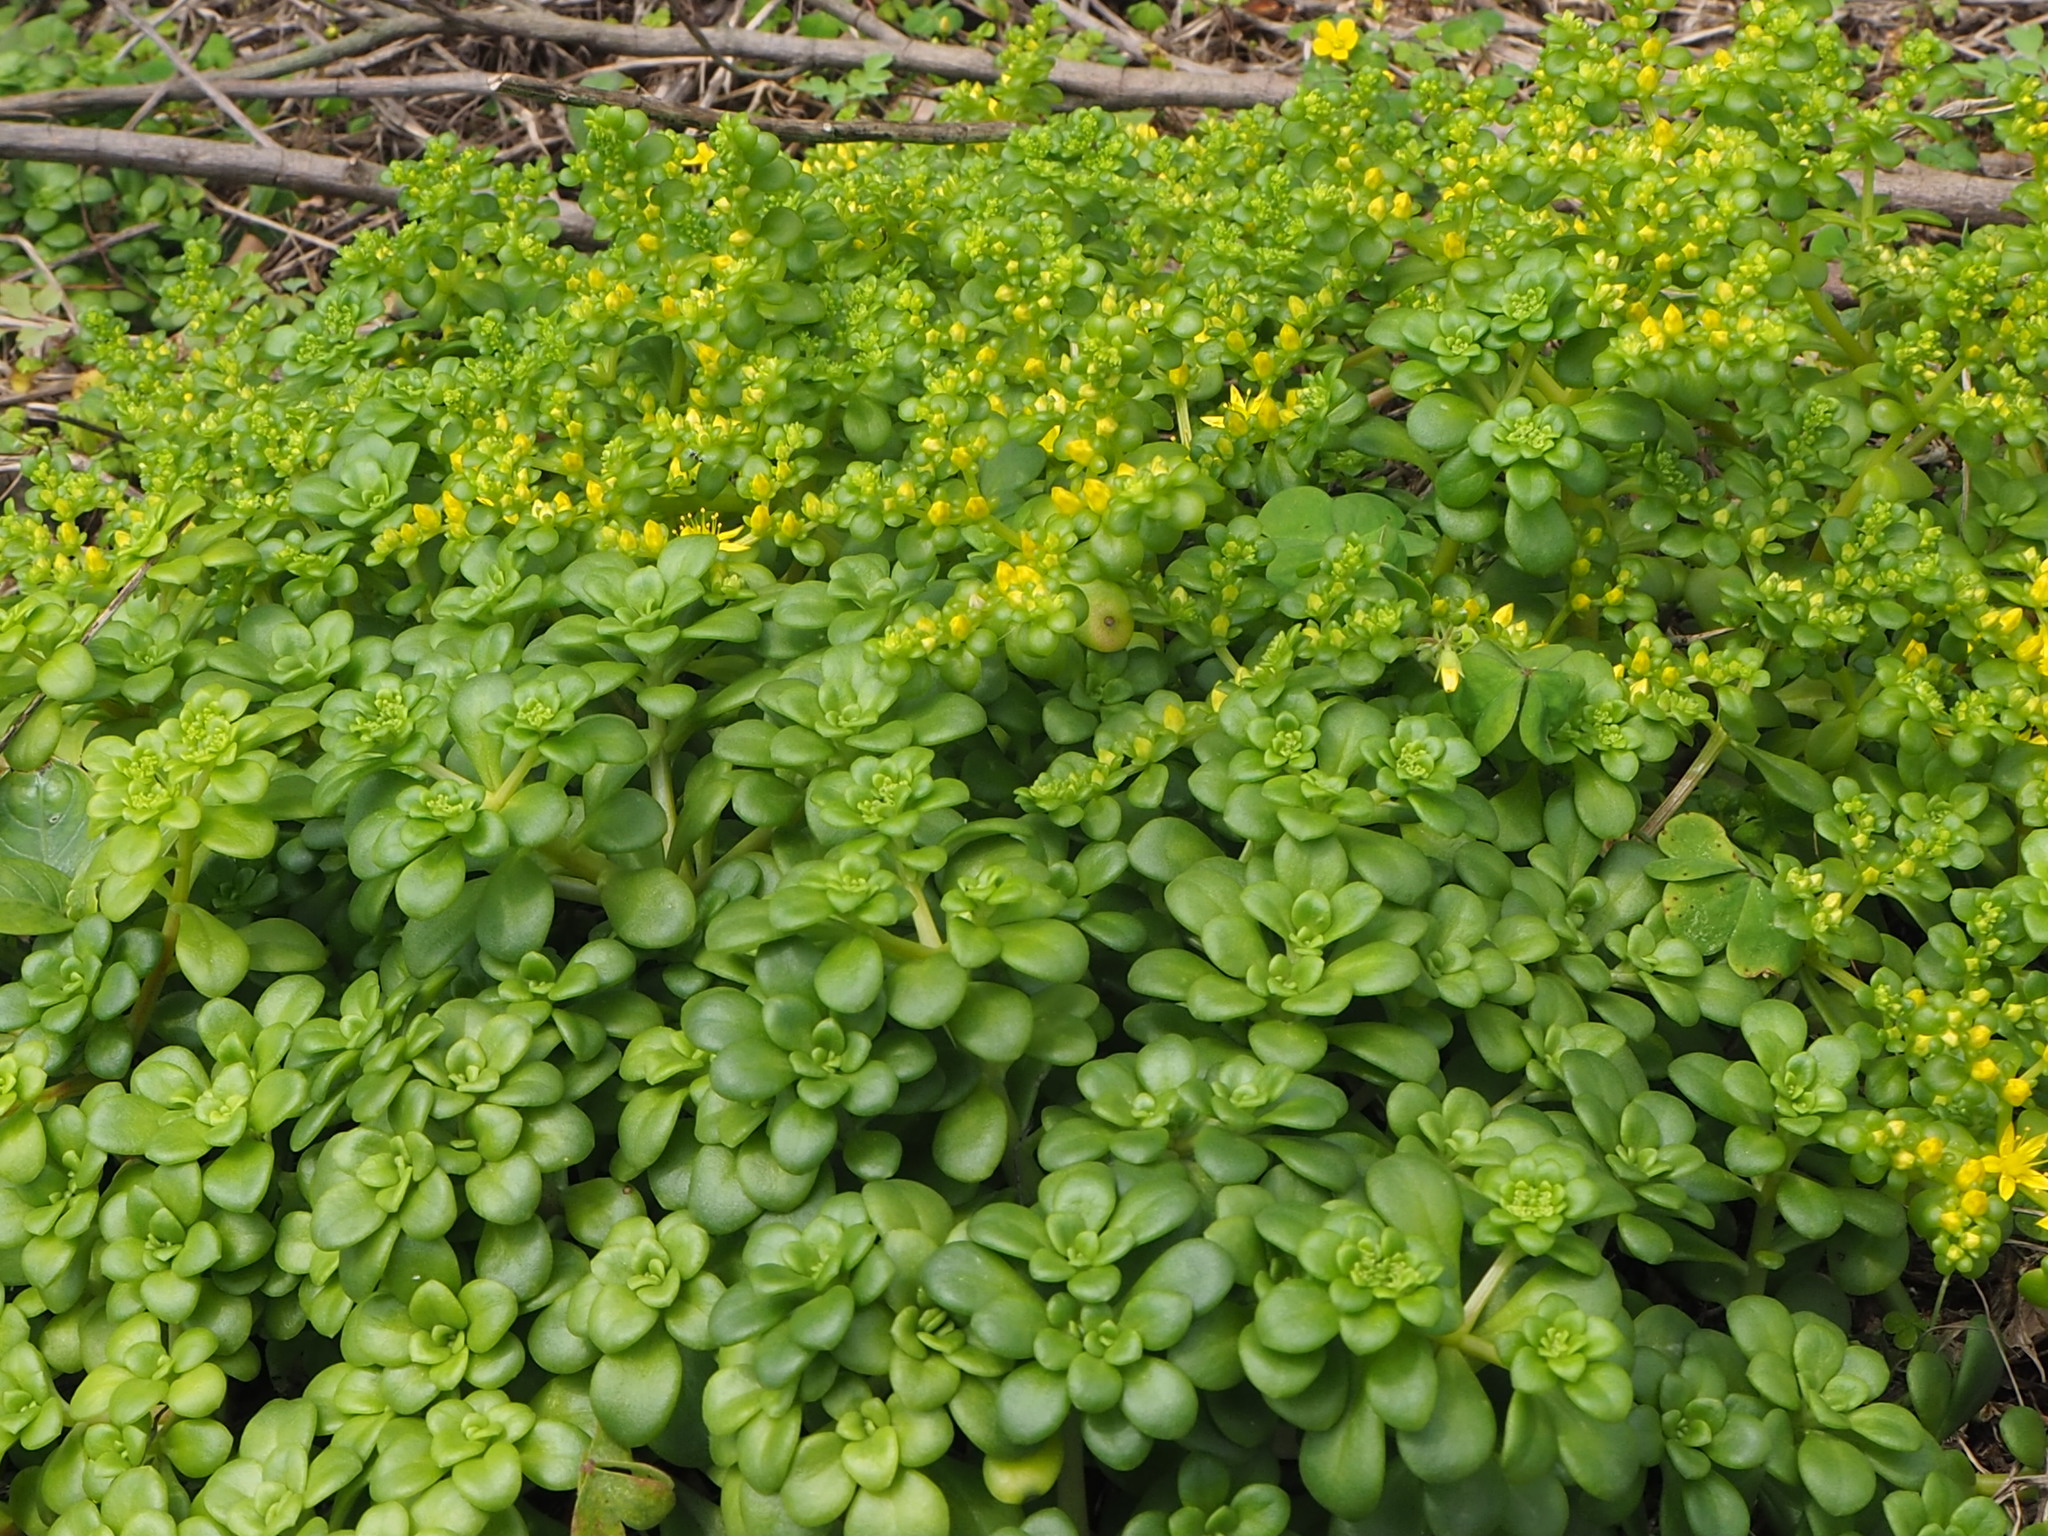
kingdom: Plantae
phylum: Tracheophyta
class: Magnoliopsida
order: Saxifragales
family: Crassulaceae
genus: Sedum
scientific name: Sedum formosanum
